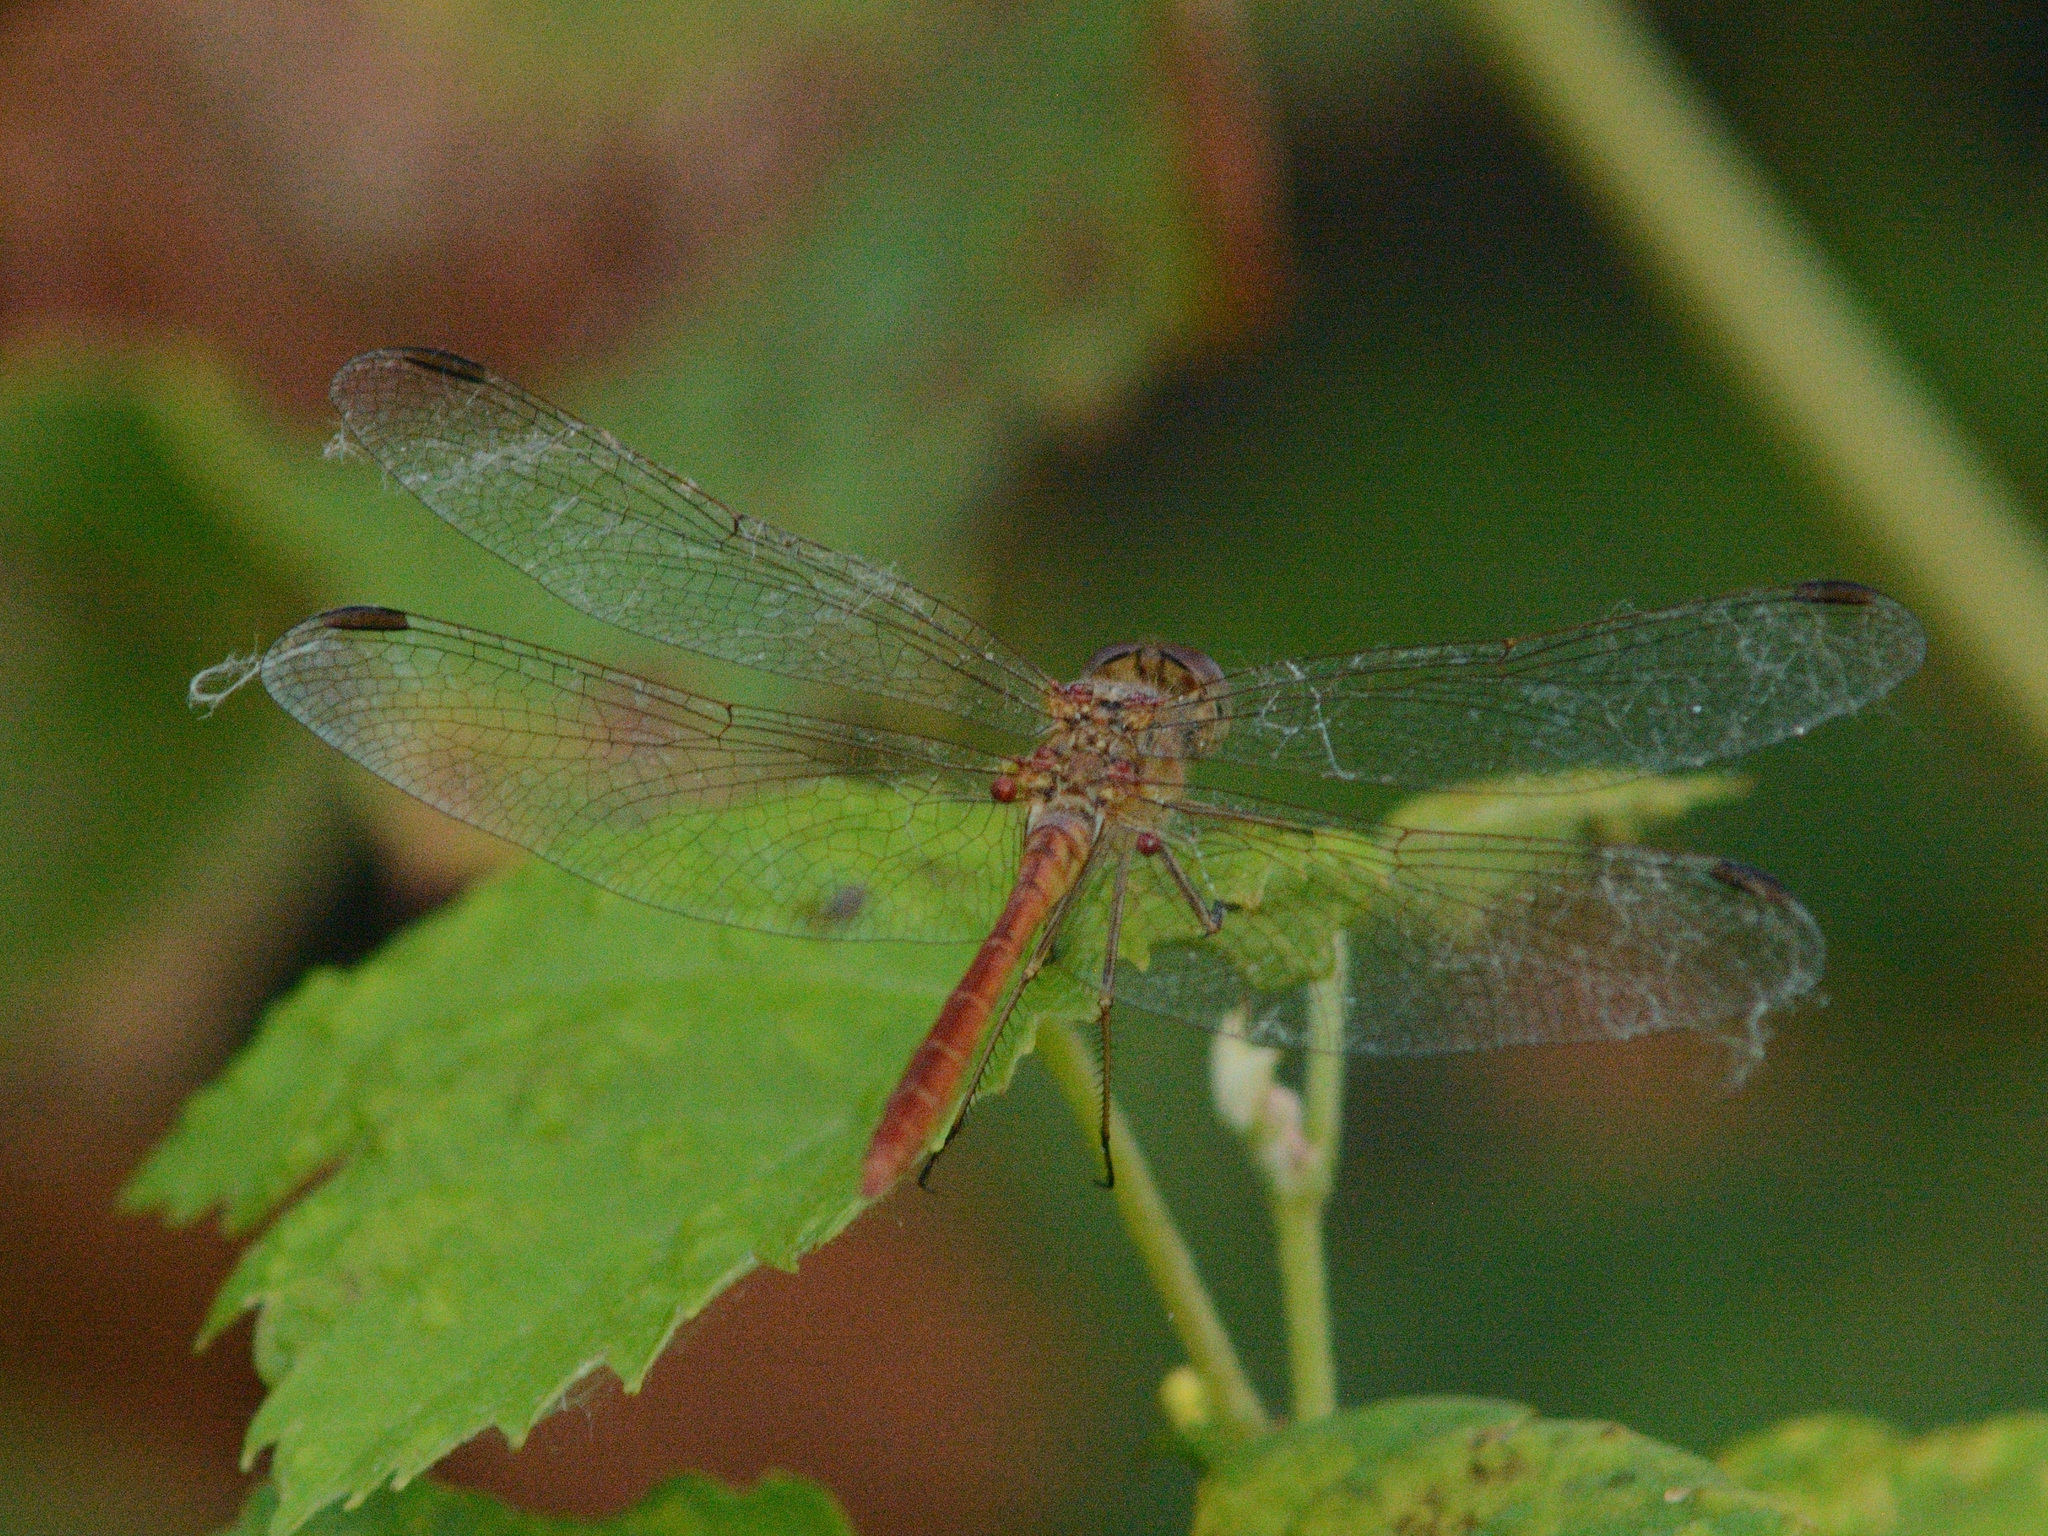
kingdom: Animalia
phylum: Arthropoda
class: Insecta
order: Odonata
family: Libellulidae
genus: Sympetrum
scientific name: Sympetrum meridionale
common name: Southern darter
